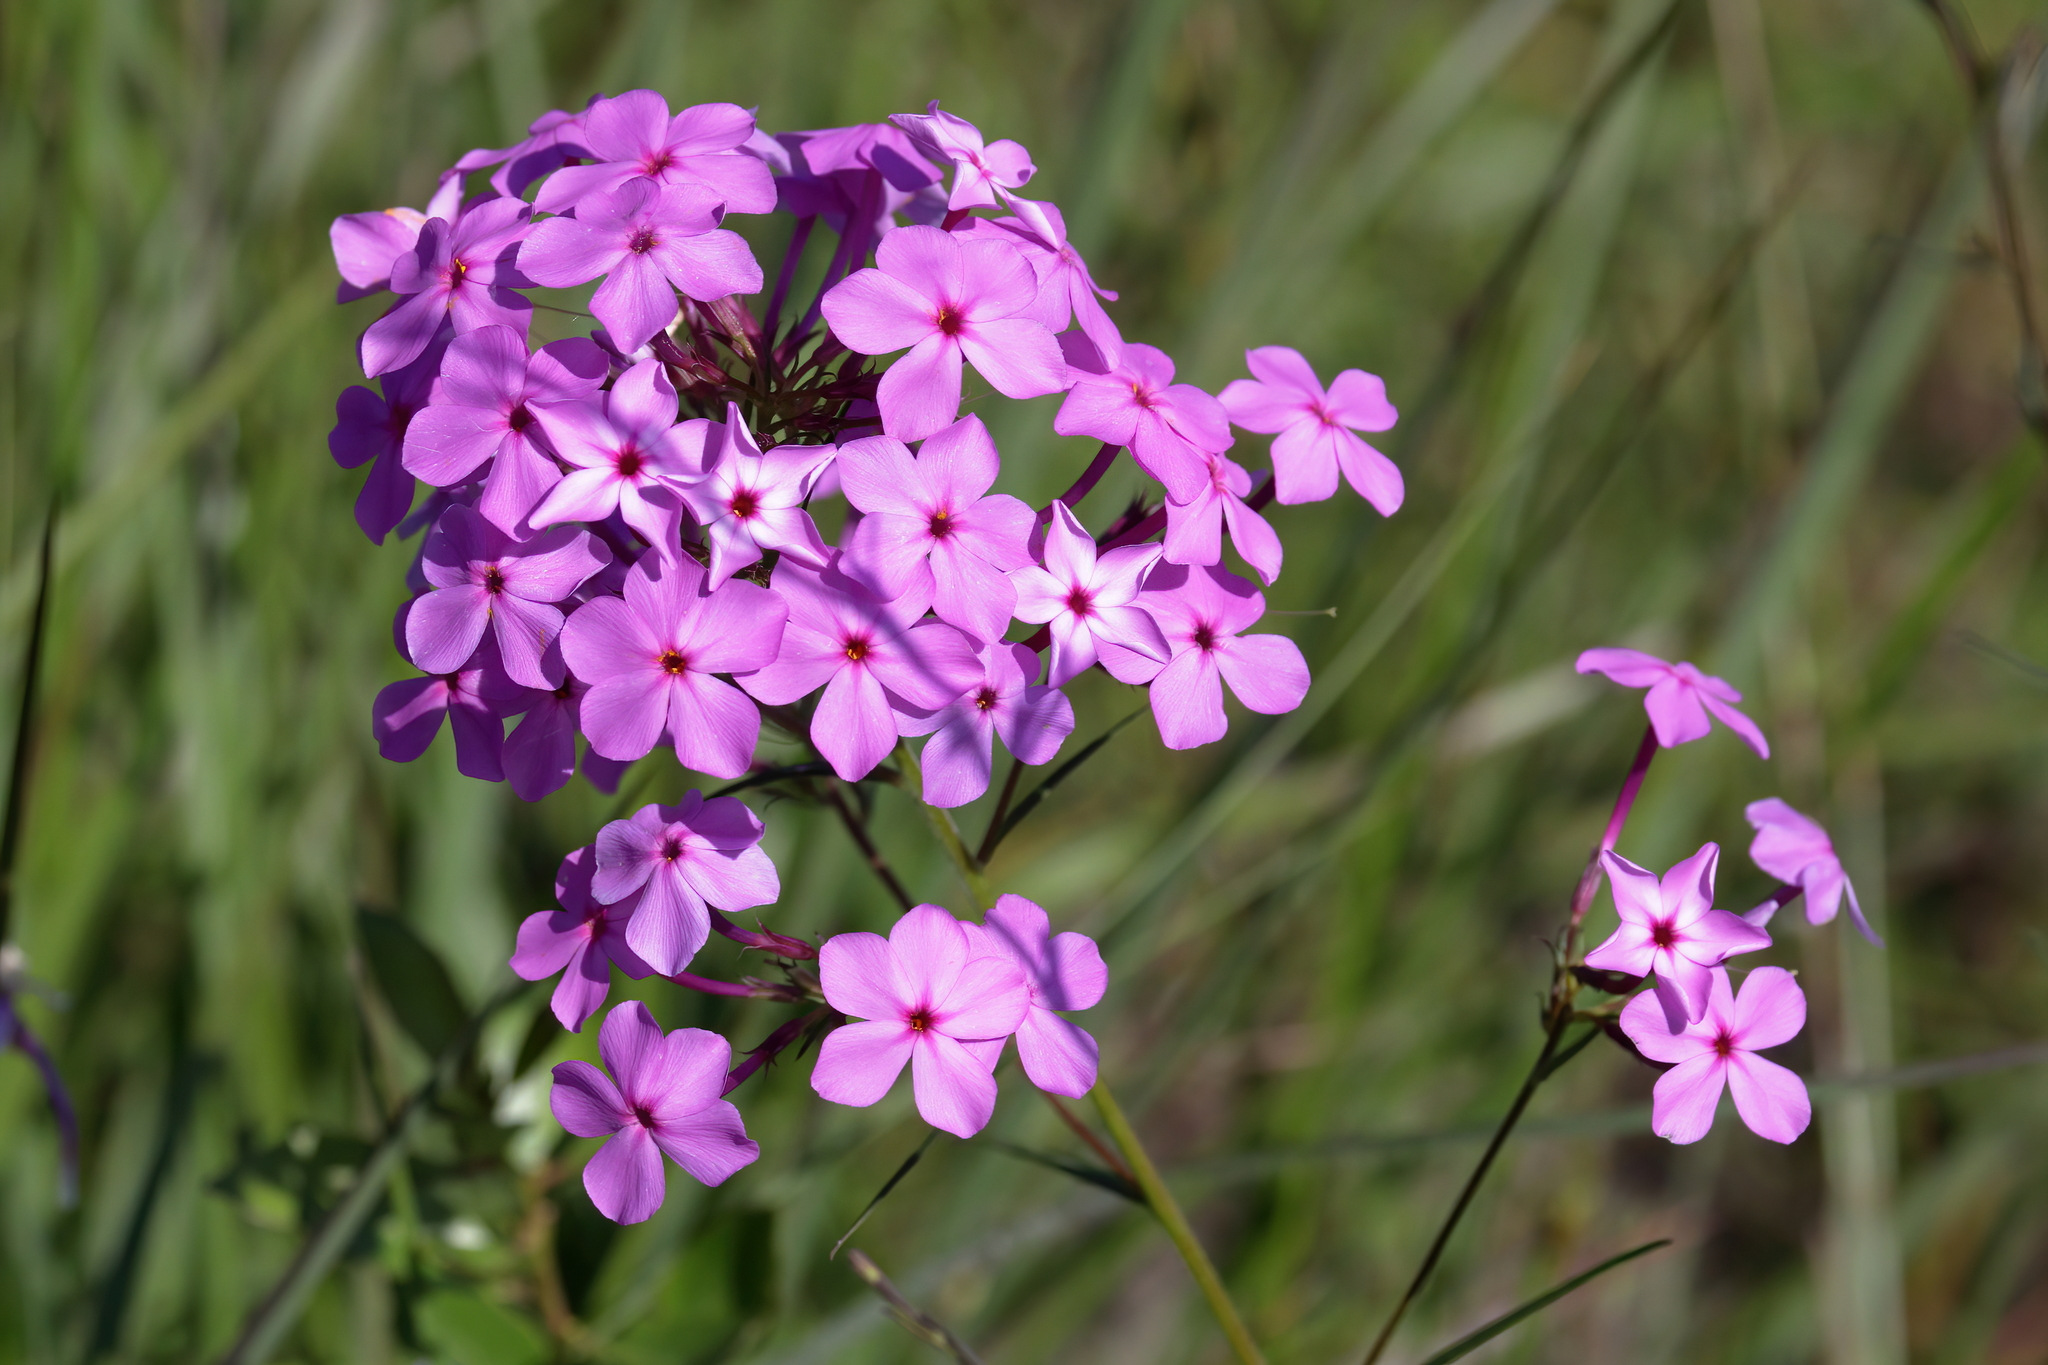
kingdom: Plantae
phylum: Tracheophyta
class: Magnoliopsida
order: Ericales
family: Polemoniaceae
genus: Phlox
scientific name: Phlox carolina
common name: Thick-leaf phlox
